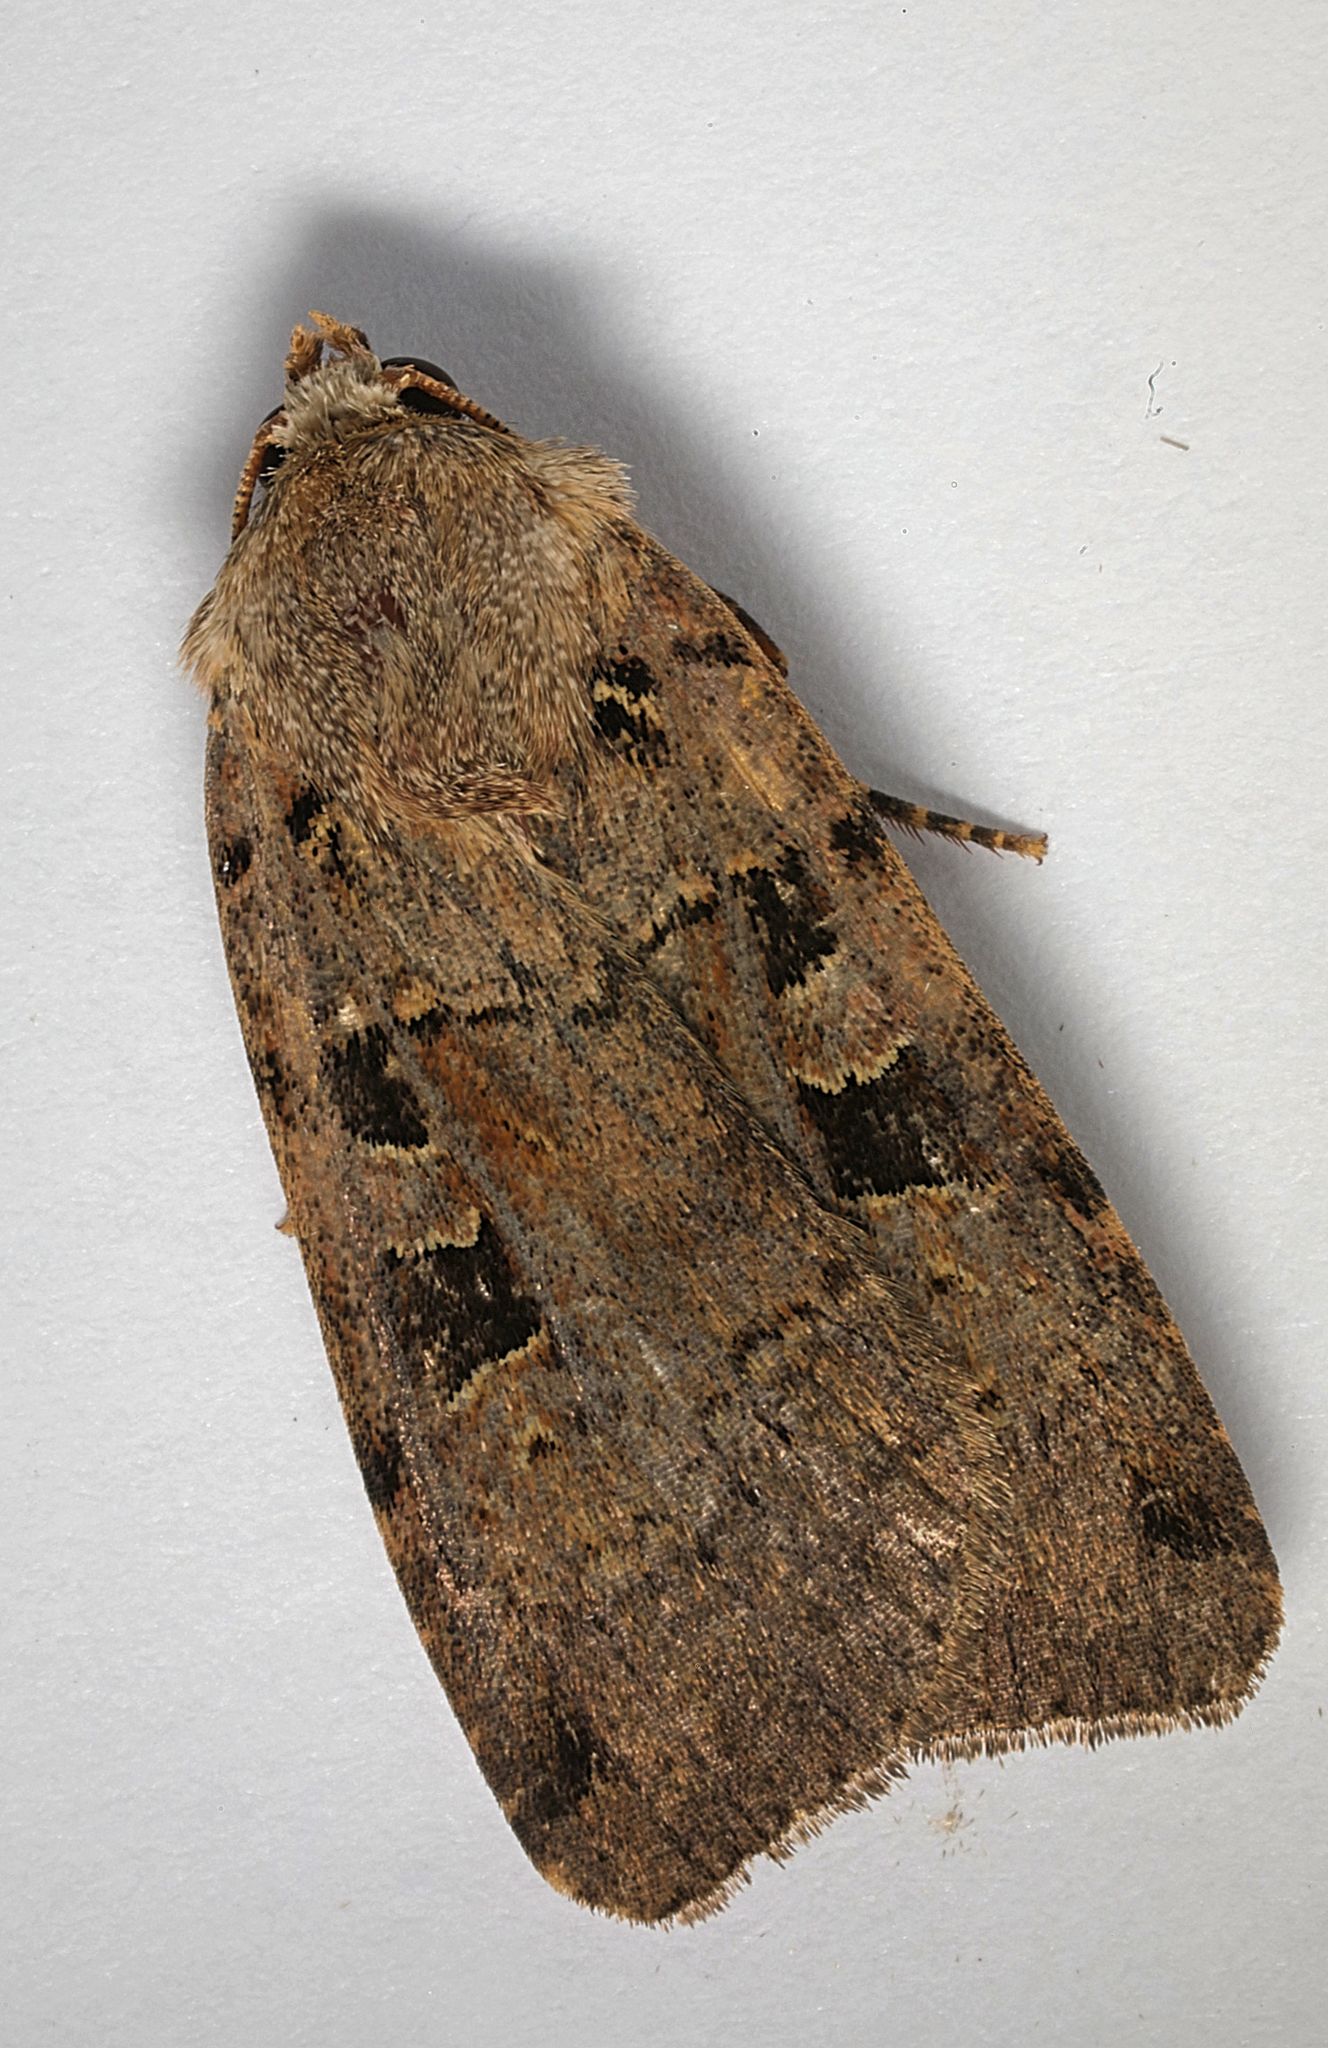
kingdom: Animalia
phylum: Arthropoda
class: Insecta
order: Lepidoptera
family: Noctuidae
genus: Xestia
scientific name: Xestia triangulum
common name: Double square-spot
